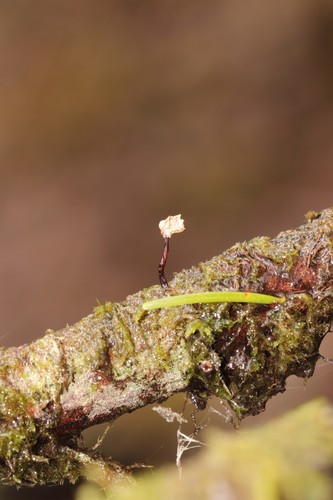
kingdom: Fungi
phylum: Basidiomycota
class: Agaricomycetes
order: Agaricales
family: Omphalotaceae
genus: Gymnopus
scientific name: Gymnopus androsaceus
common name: Horse-hair fungus
